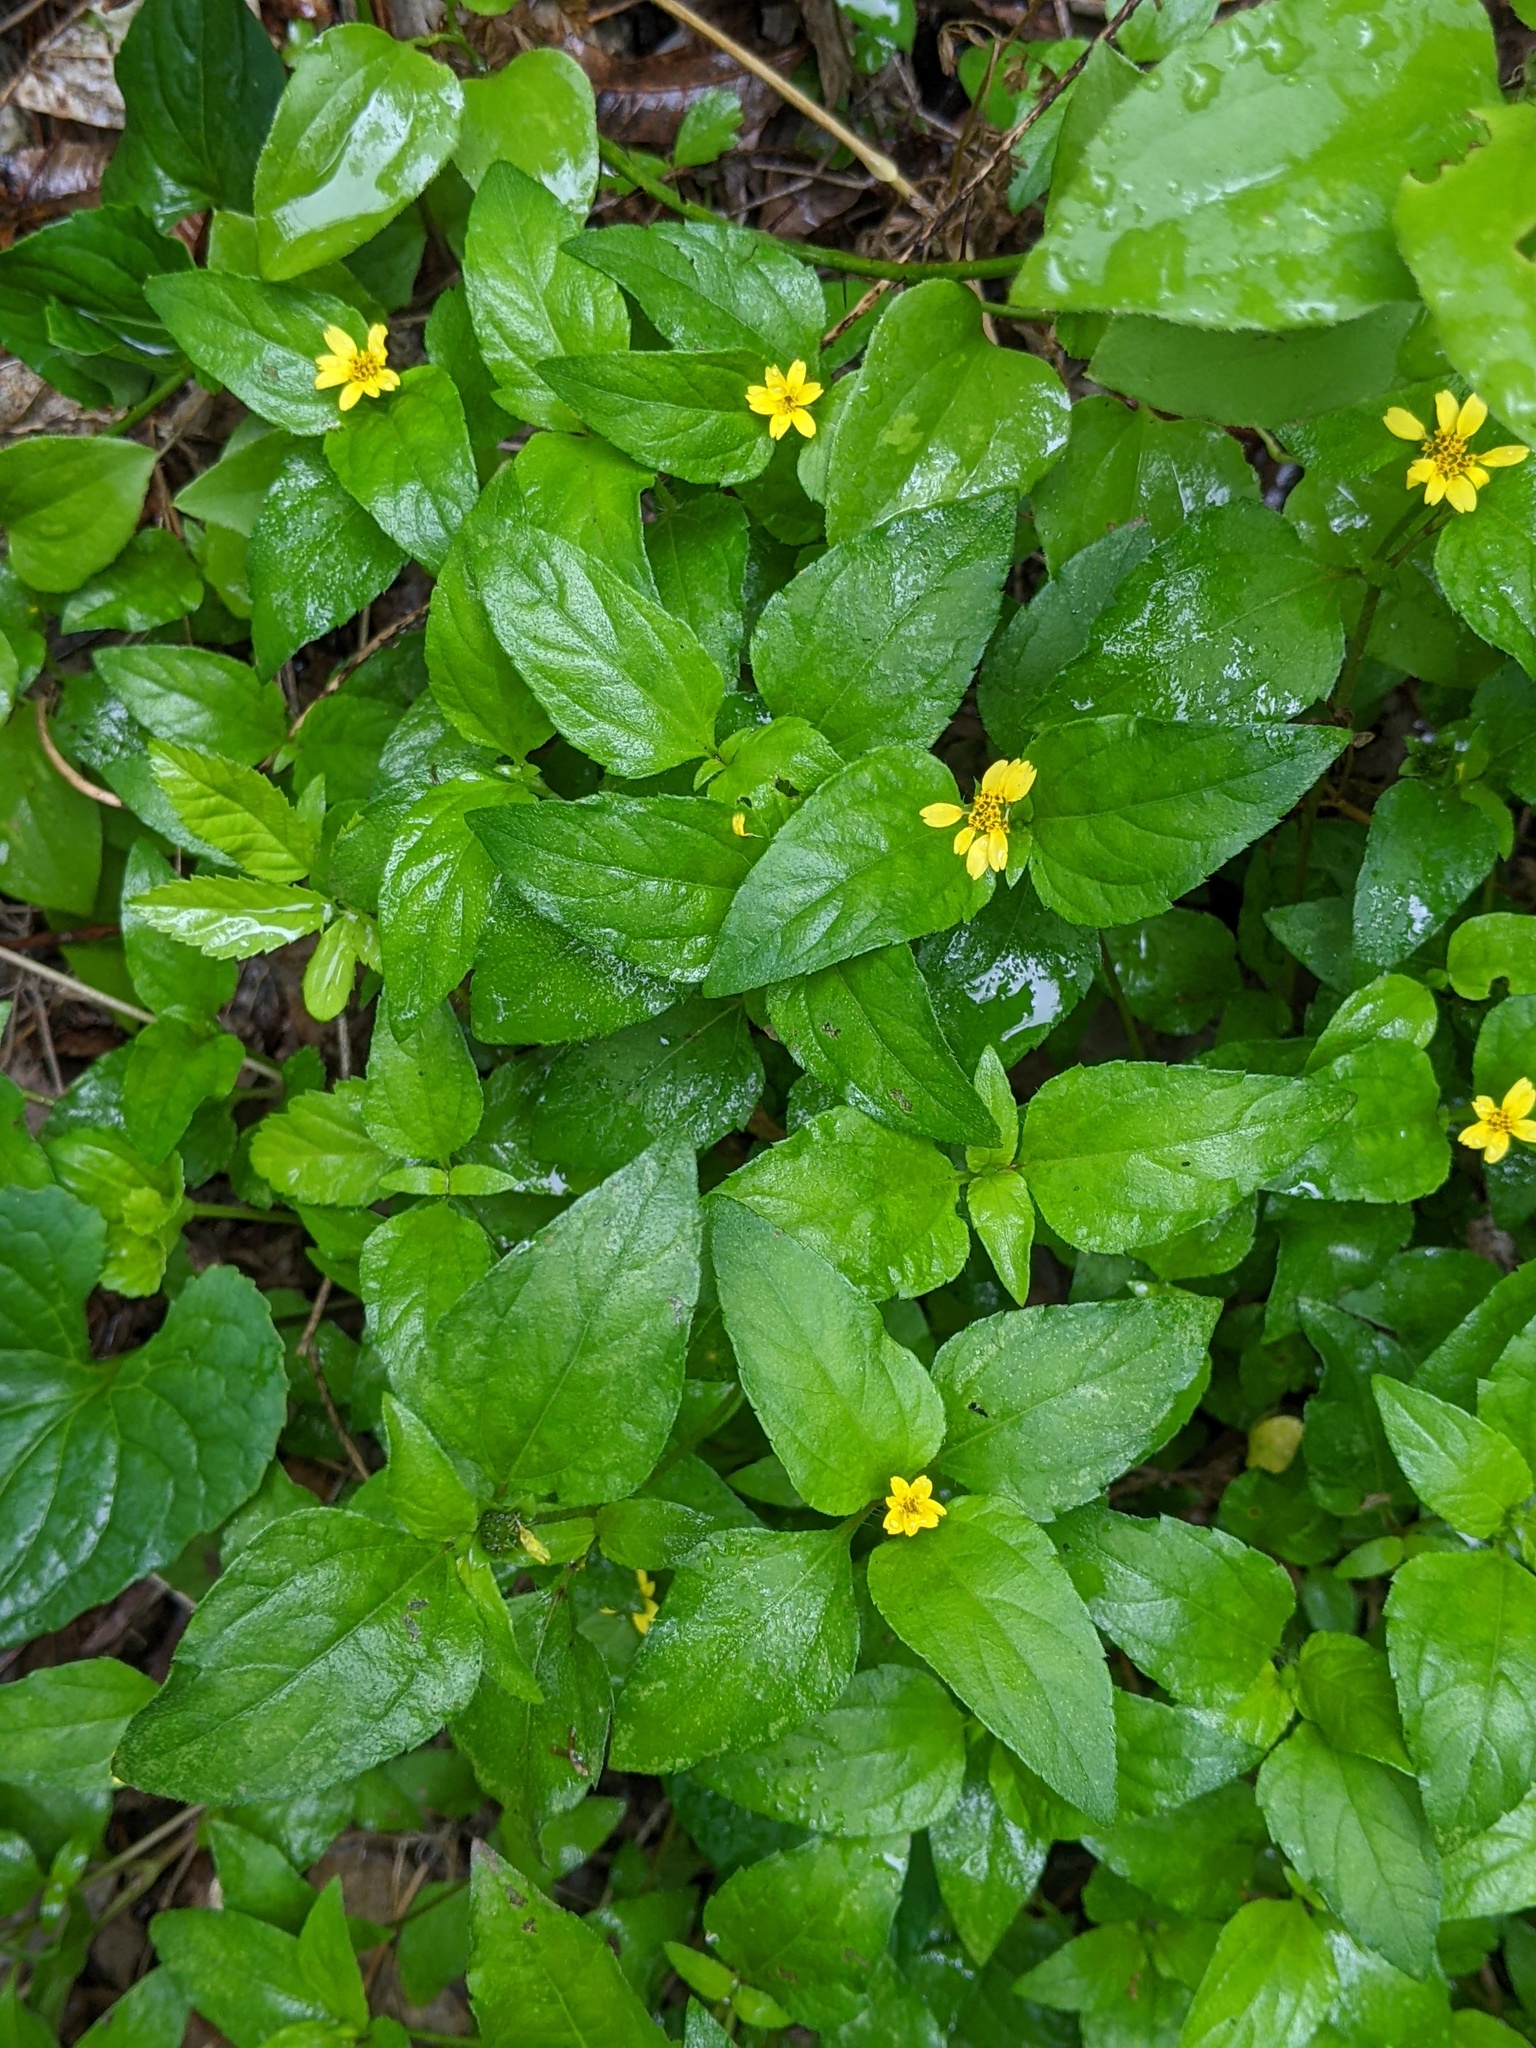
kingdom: Plantae
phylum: Tracheophyta
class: Magnoliopsida
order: Asterales
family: Asteraceae
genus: Calyptocarpus
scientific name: Calyptocarpus vialis
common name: Straggler daisy
